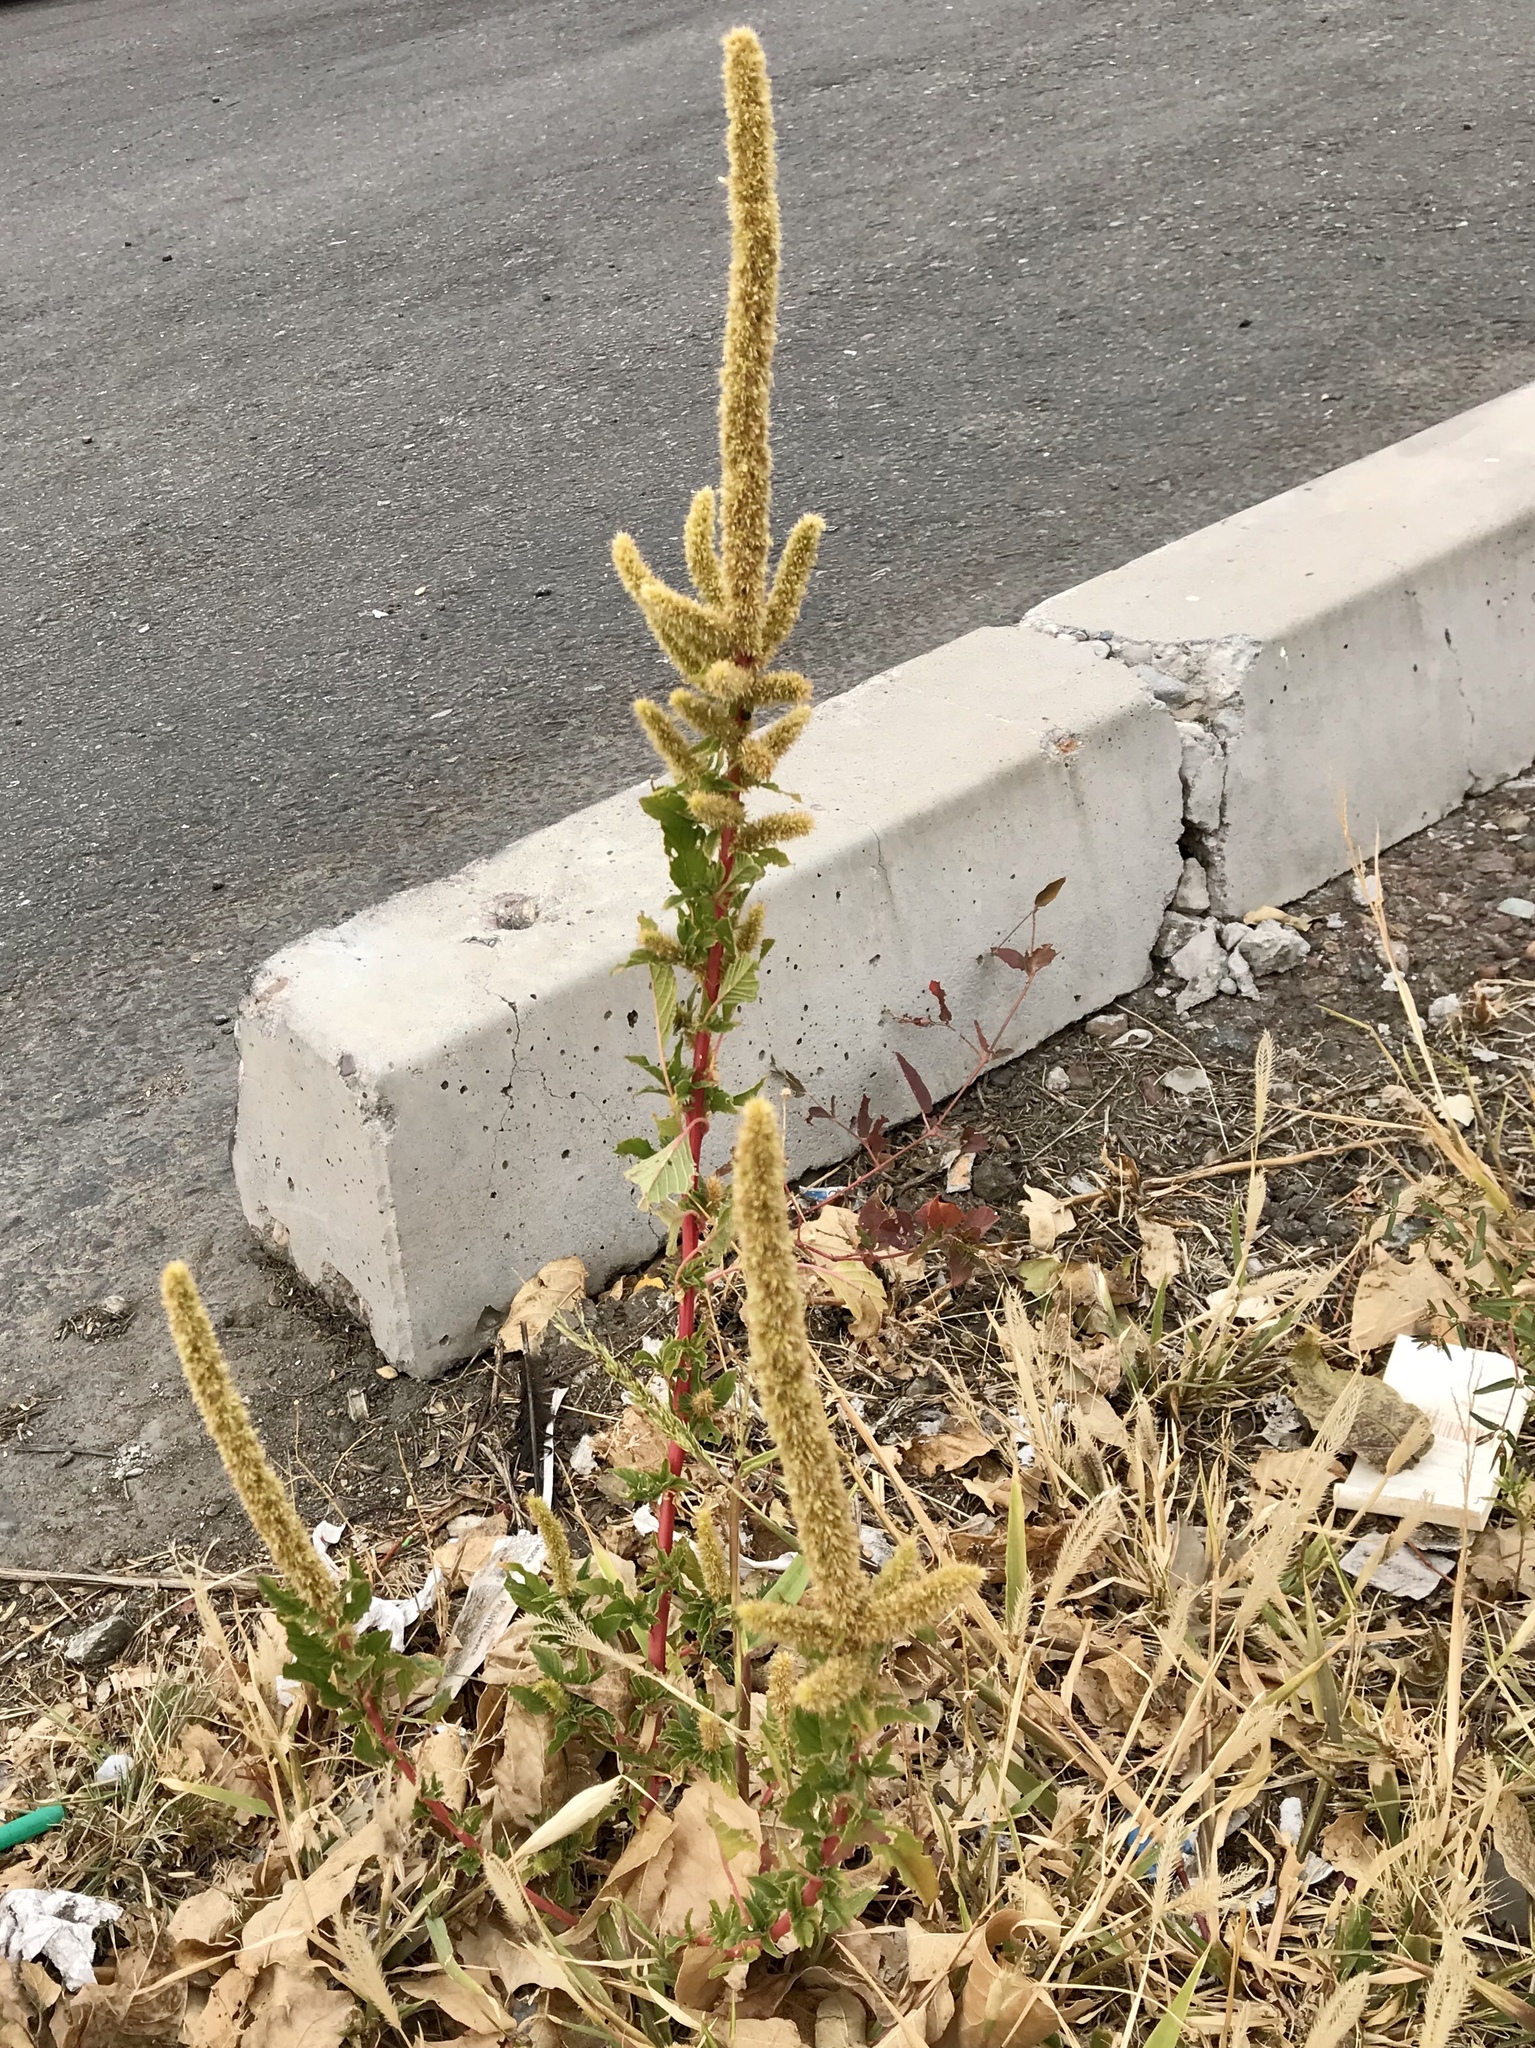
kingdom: Plantae
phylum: Tracheophyta
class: Magnoliopsida
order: Caryophyllales
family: Amaranthaceae
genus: Amaranthus
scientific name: Amaranthus palmeri
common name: Dioecious amaranth
